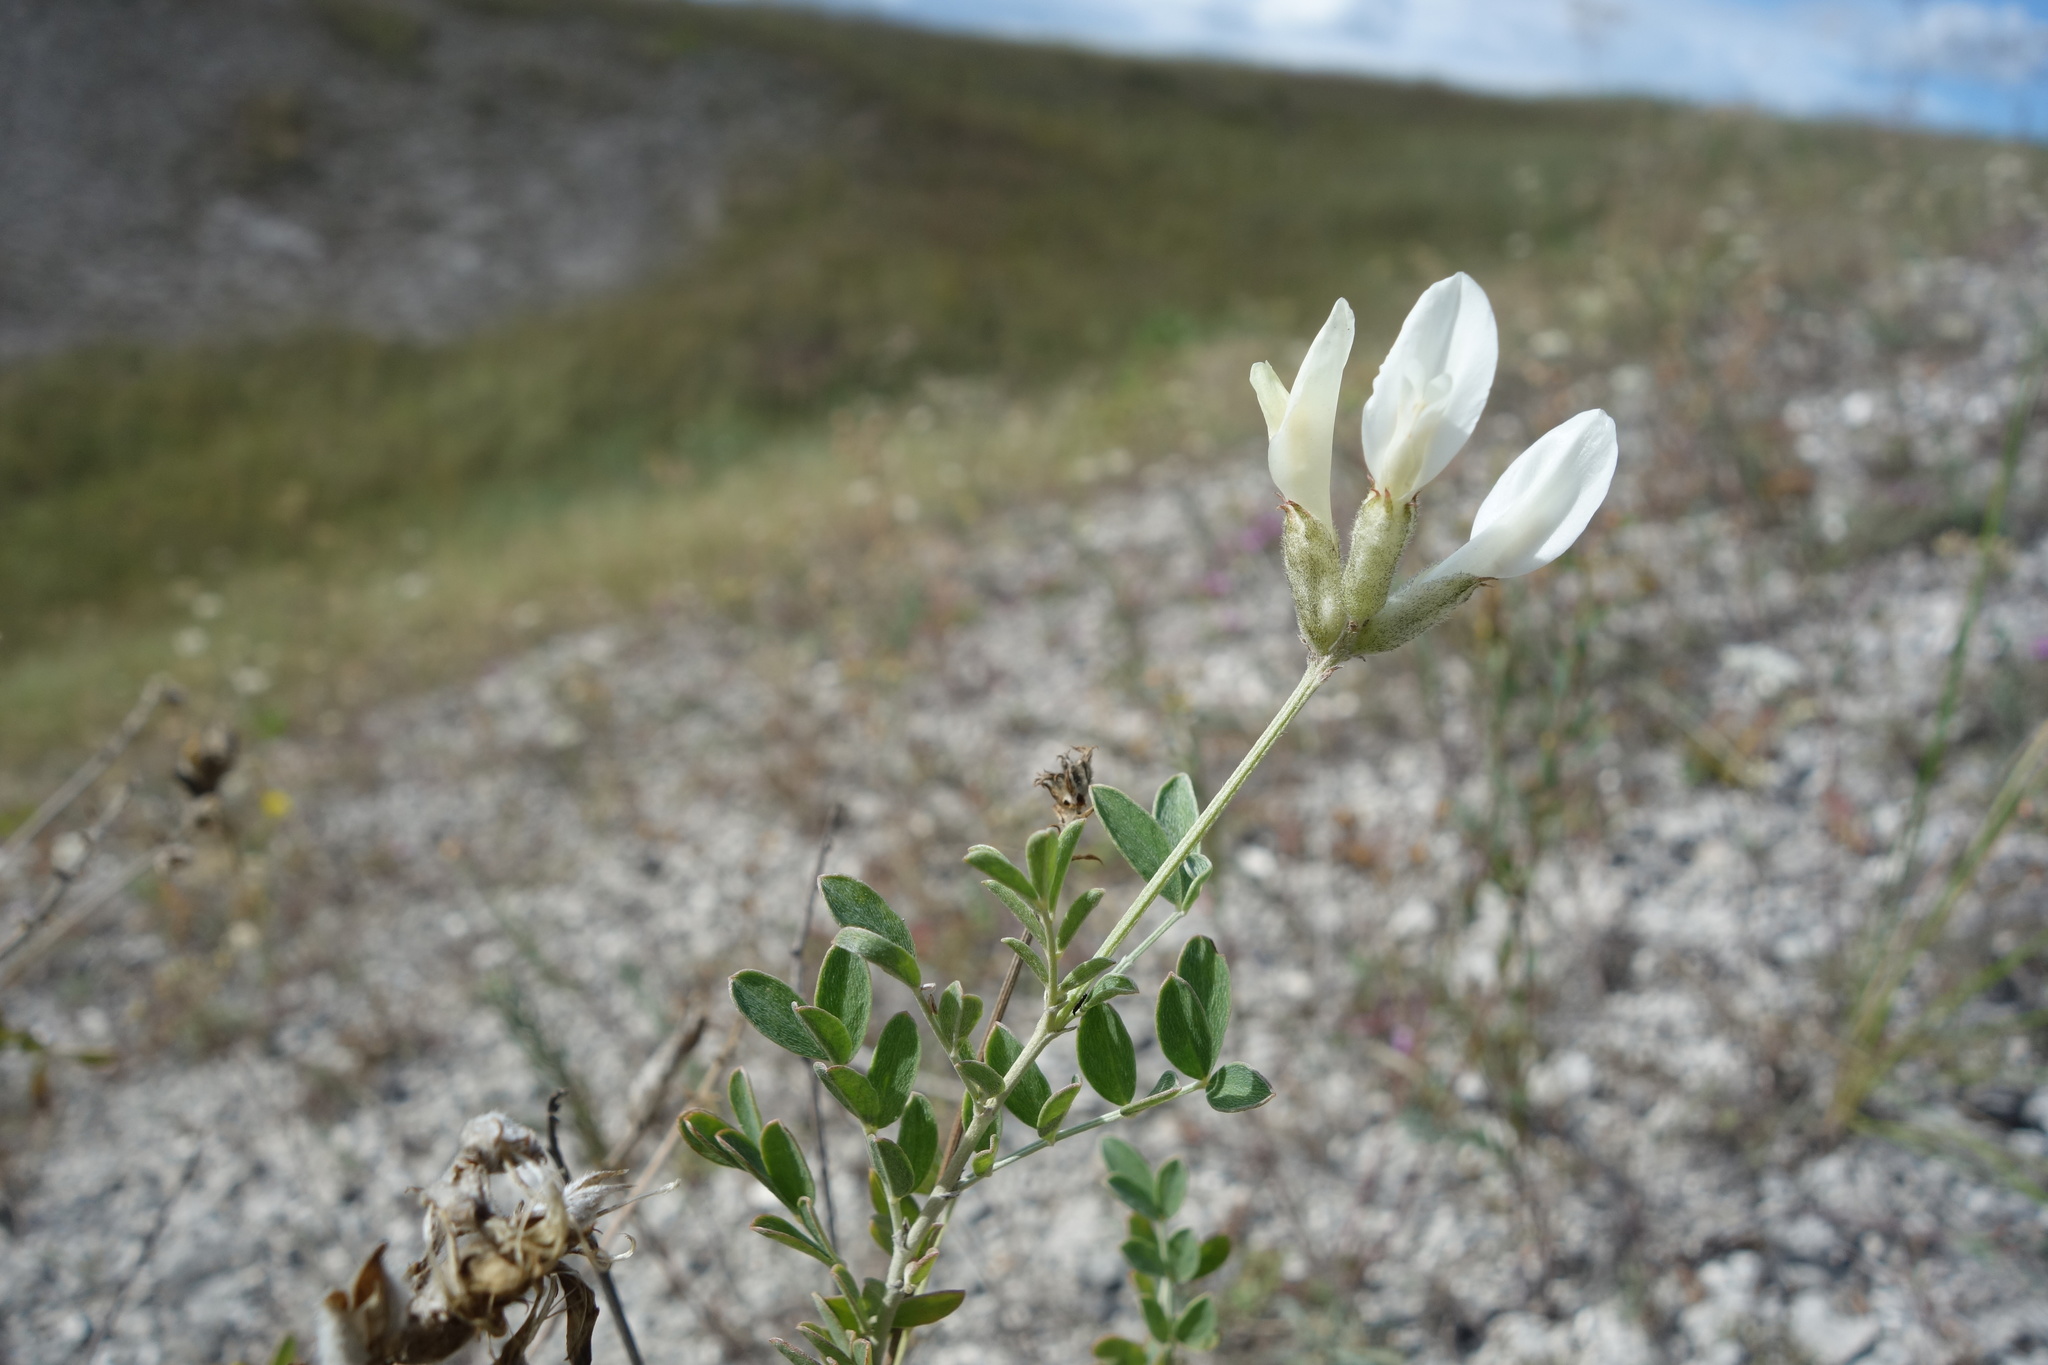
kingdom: Plantae
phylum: Tracheophyta
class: Magnoliopsida
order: Fabales
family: Fabaceae
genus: Astragalus
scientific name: Astragalus albicaulis
